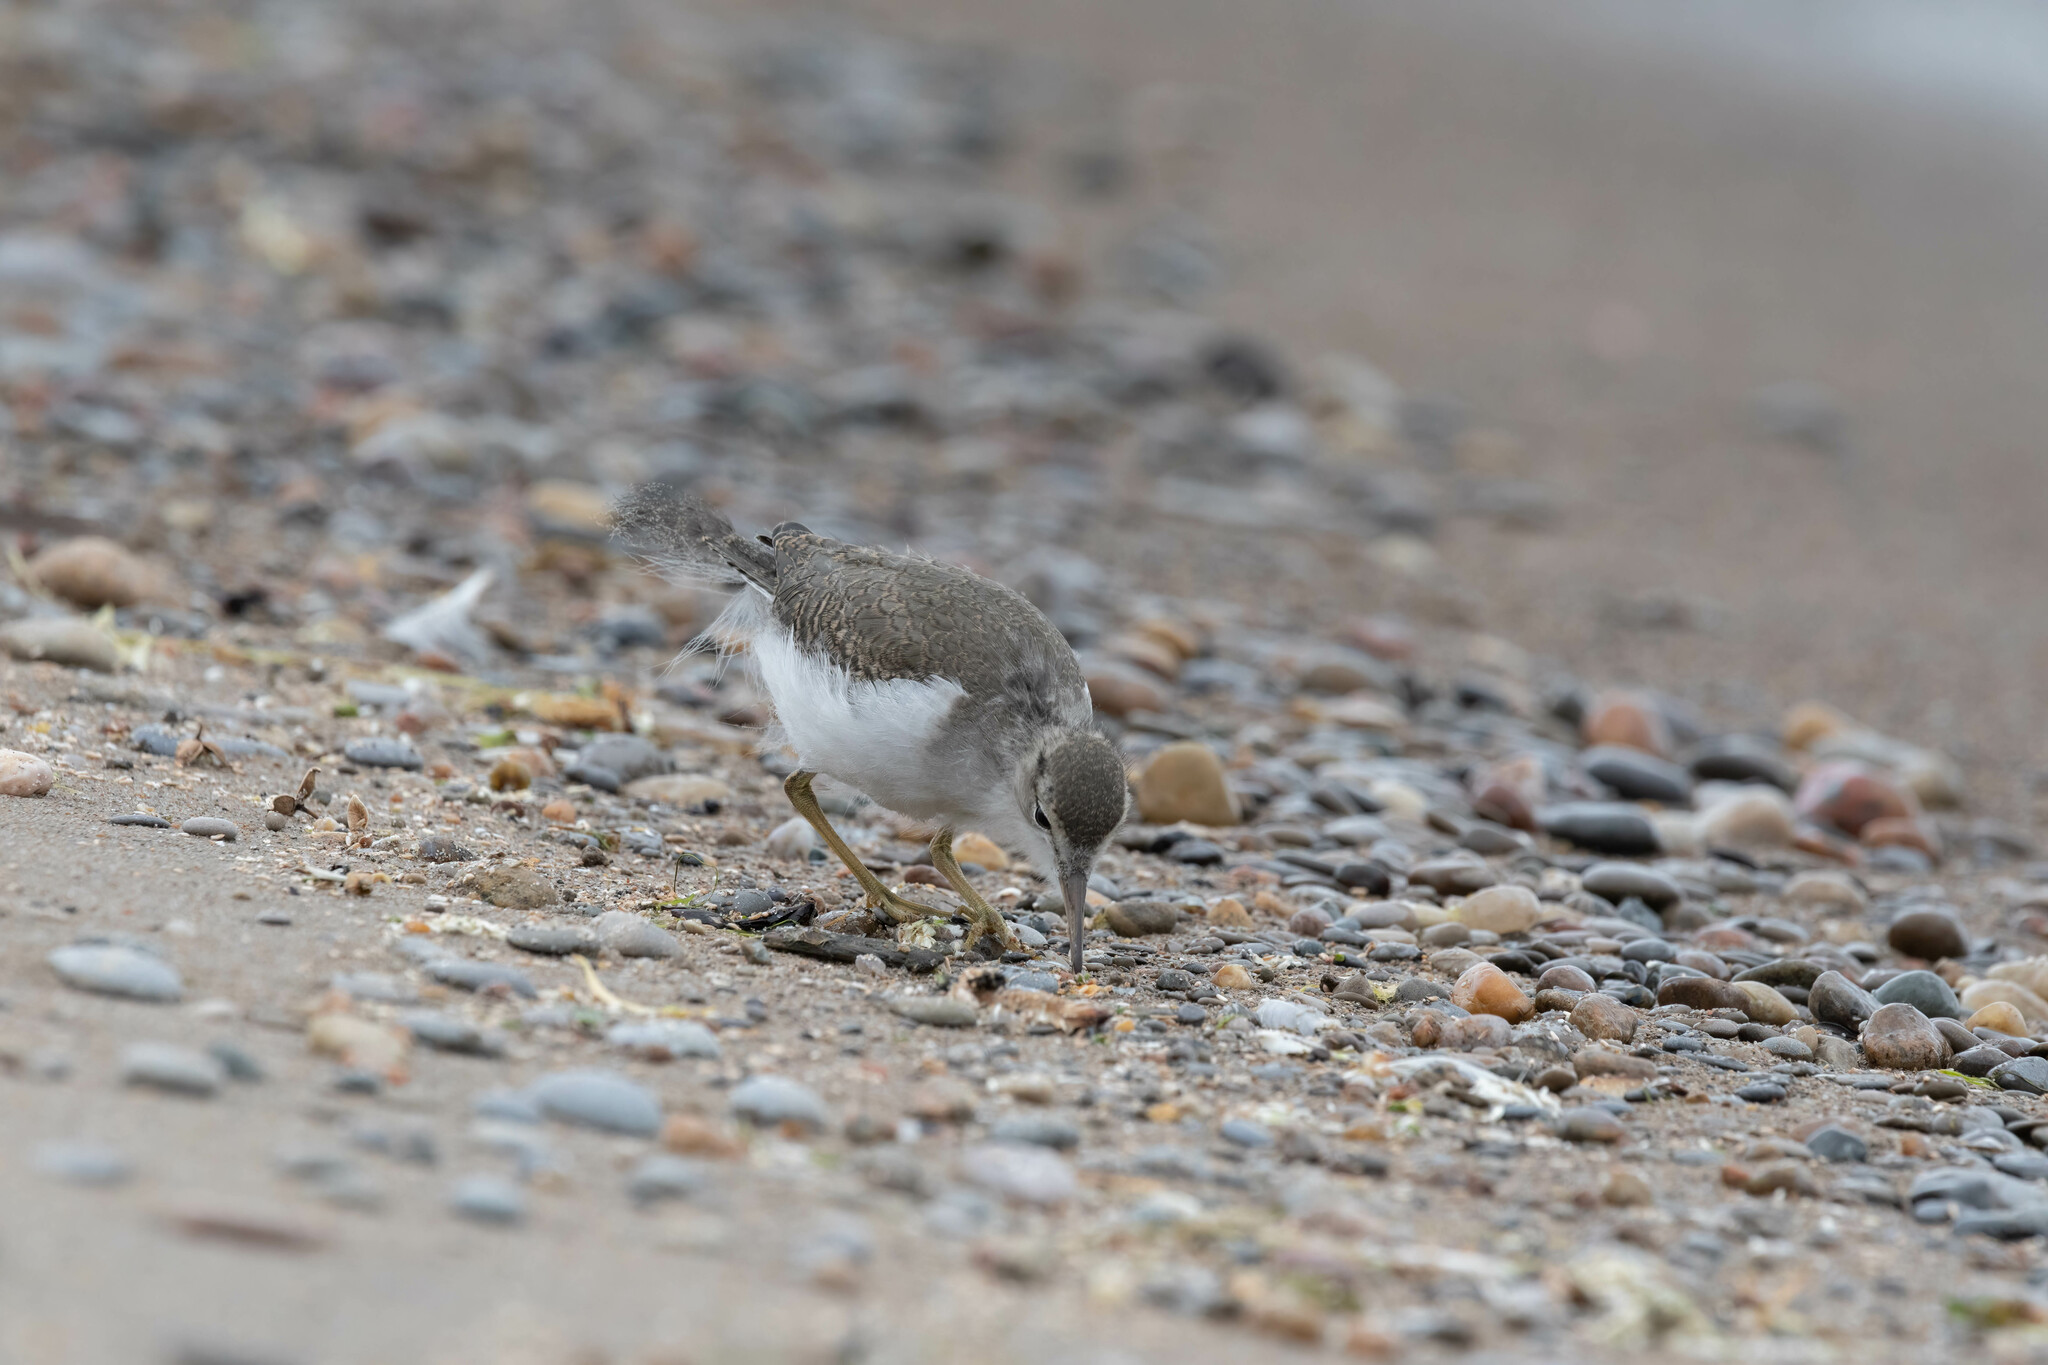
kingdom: Animalia
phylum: Chordata
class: Aves
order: Charadriiformes
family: Scolopacidae
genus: Actitis
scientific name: Actitis macularius
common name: Spotted sandpiper
